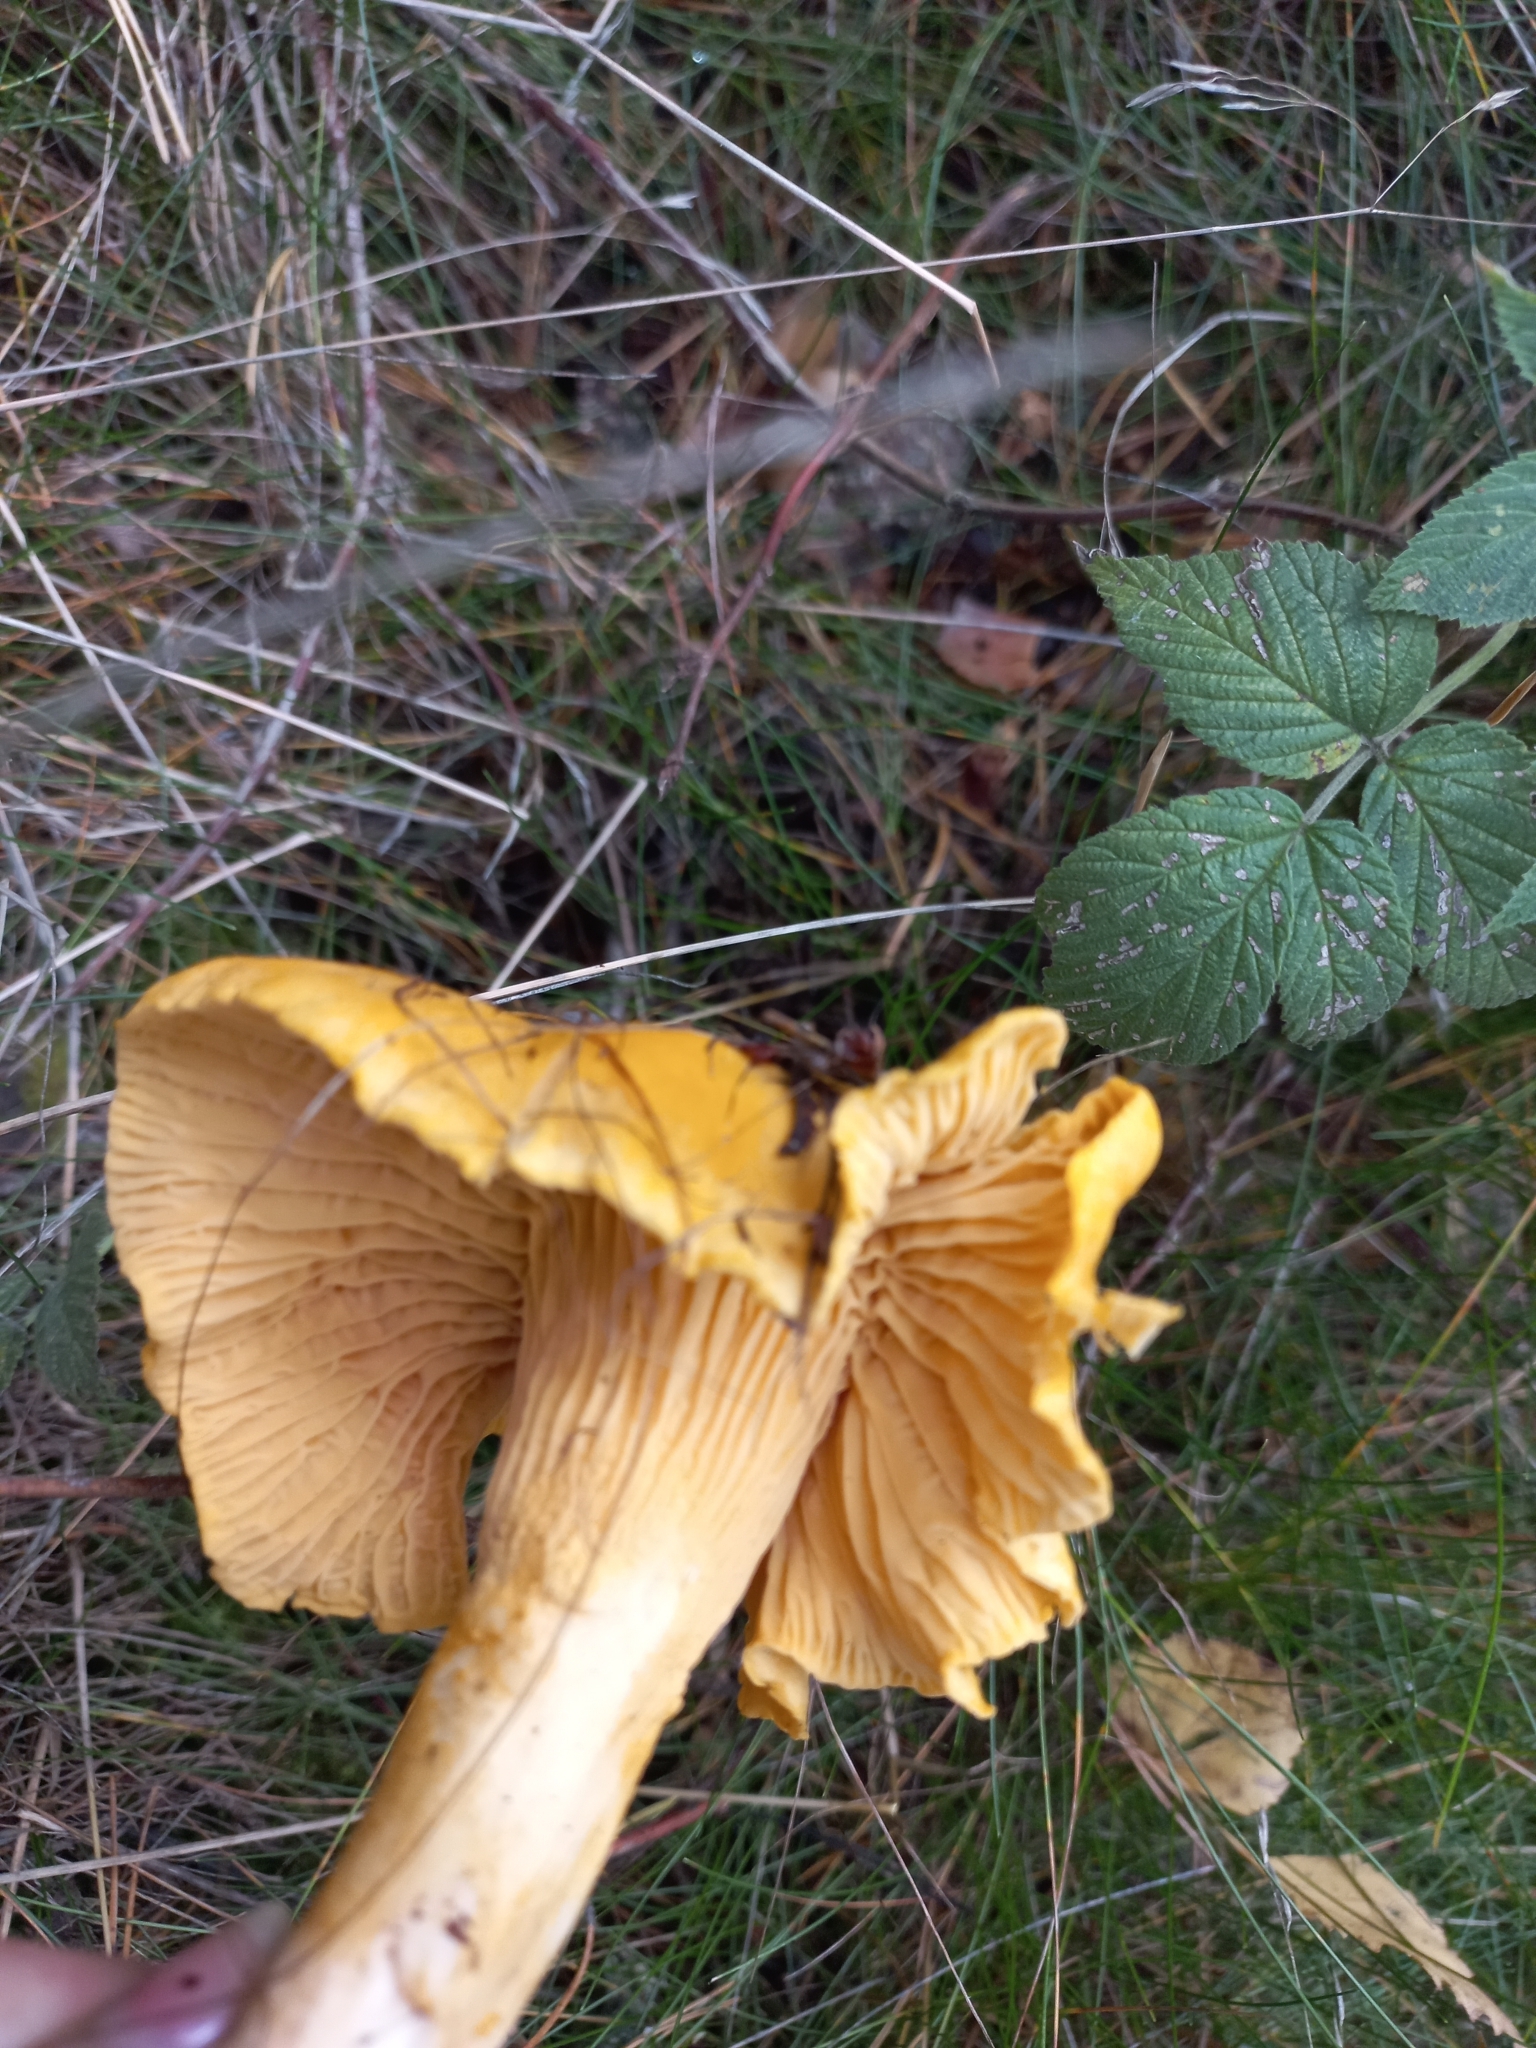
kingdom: Fungi
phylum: Basidiomycota
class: Agaricomycetes
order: Cantharellales
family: Hydnaceae
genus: Cantharellus
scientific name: Cantharellus cibarius
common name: Chanterelle
